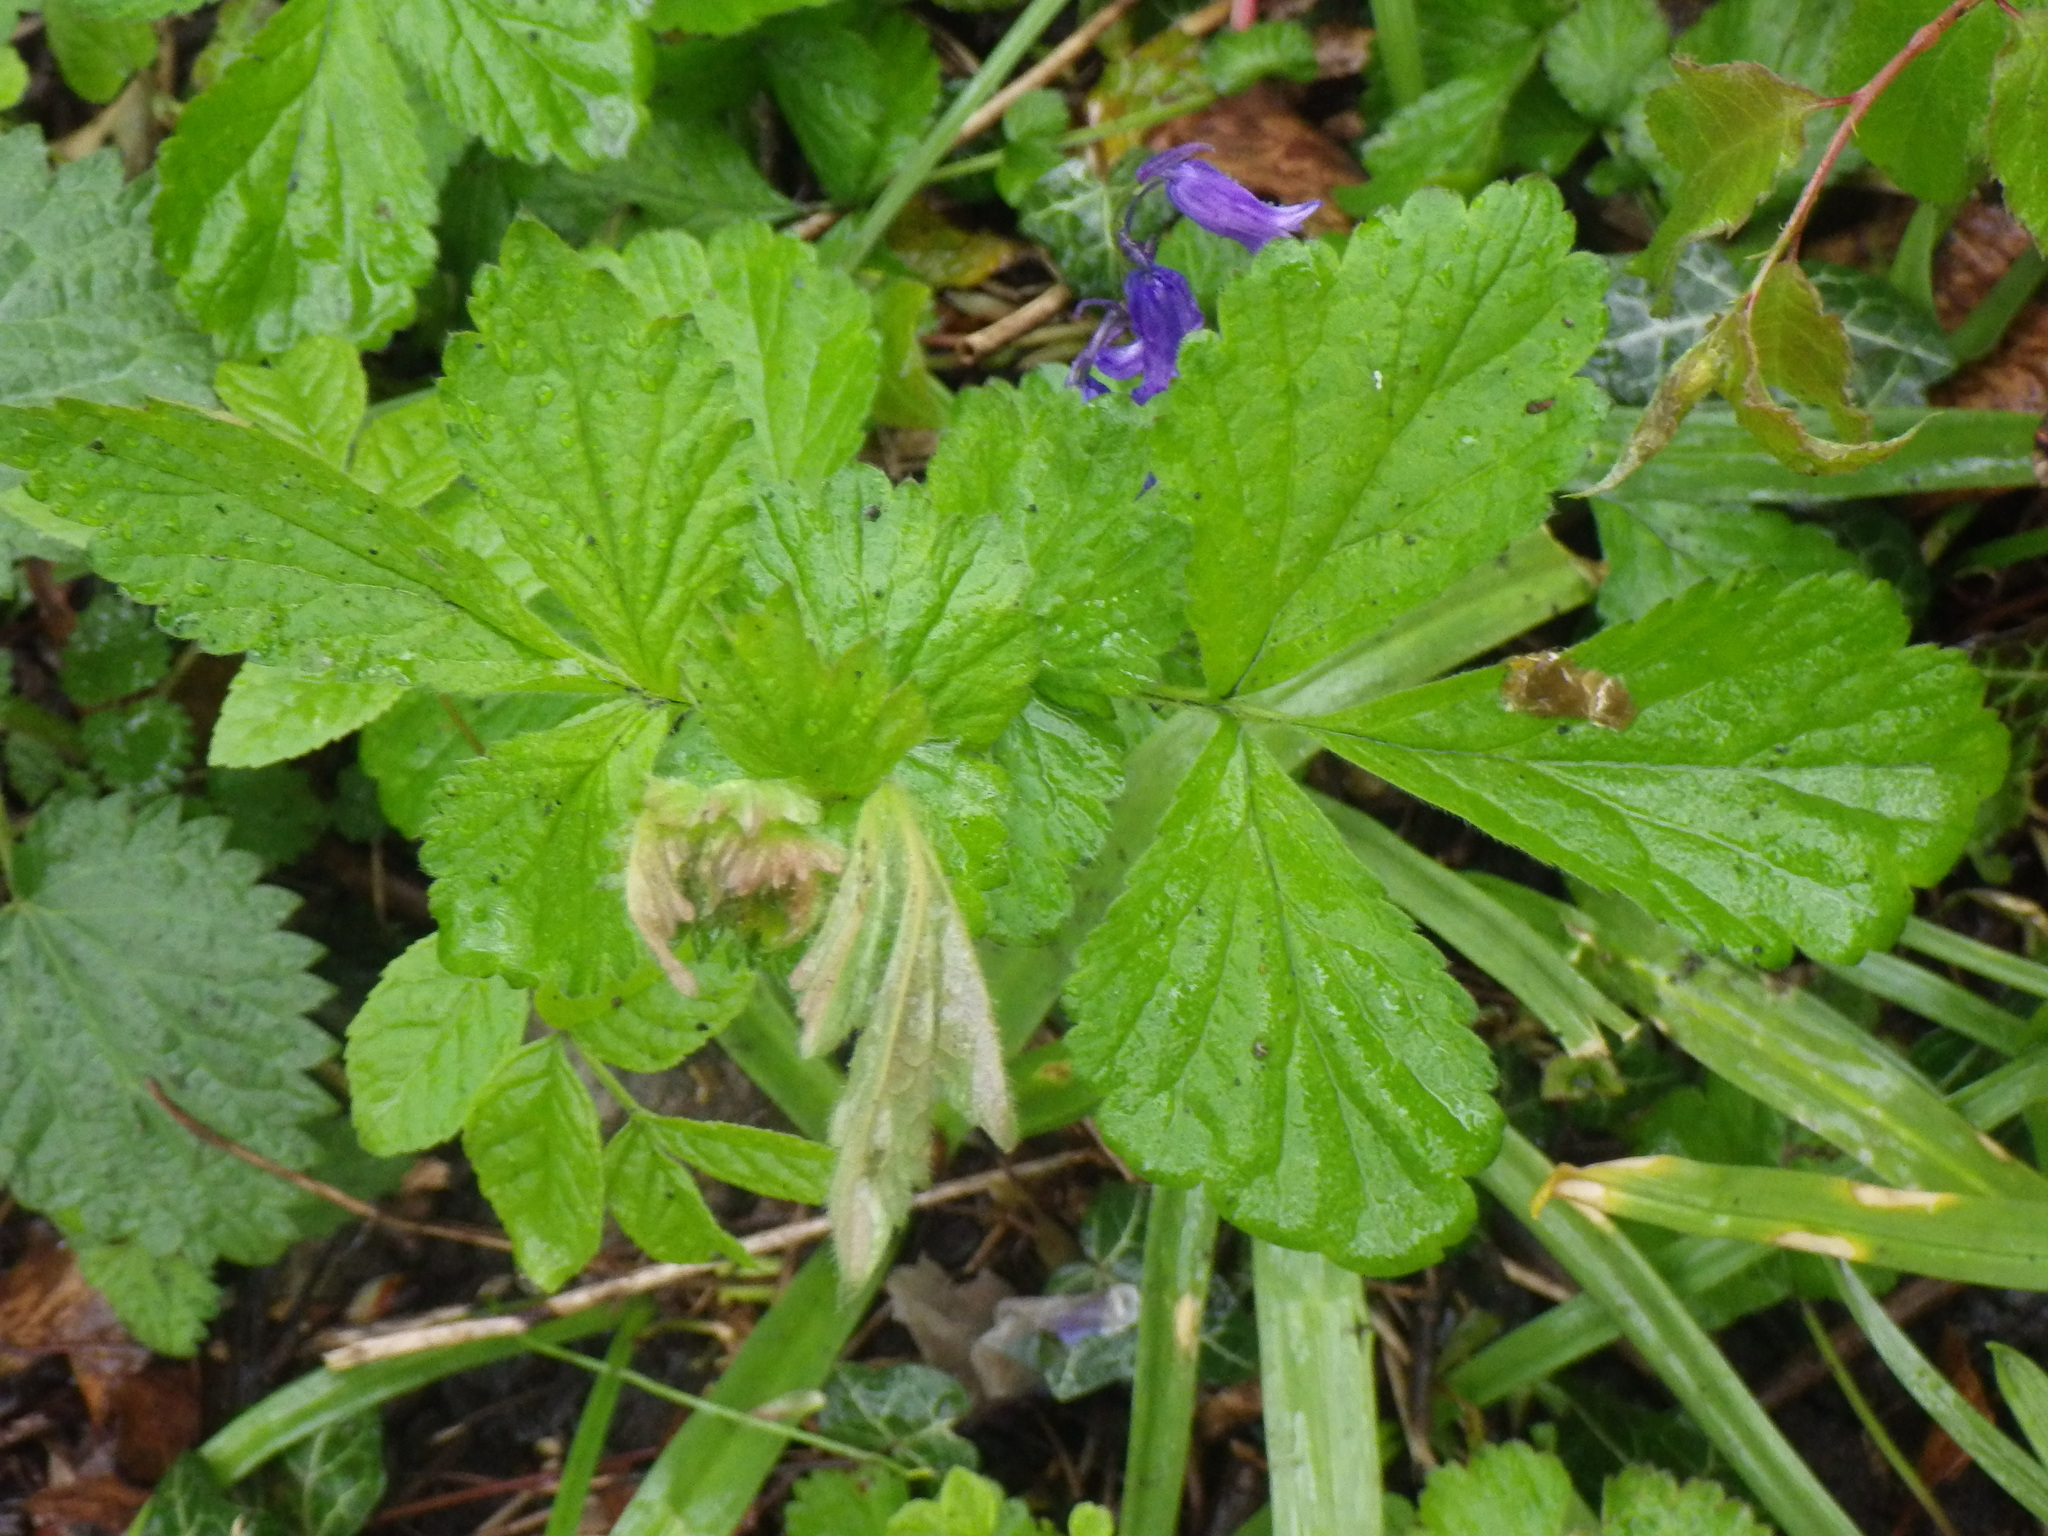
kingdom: Plantae
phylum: Tracheophyta
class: Magnoliopsida
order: Rosales
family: Rosaceae
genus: Geum
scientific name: Geum urbanum
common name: Wood avens
